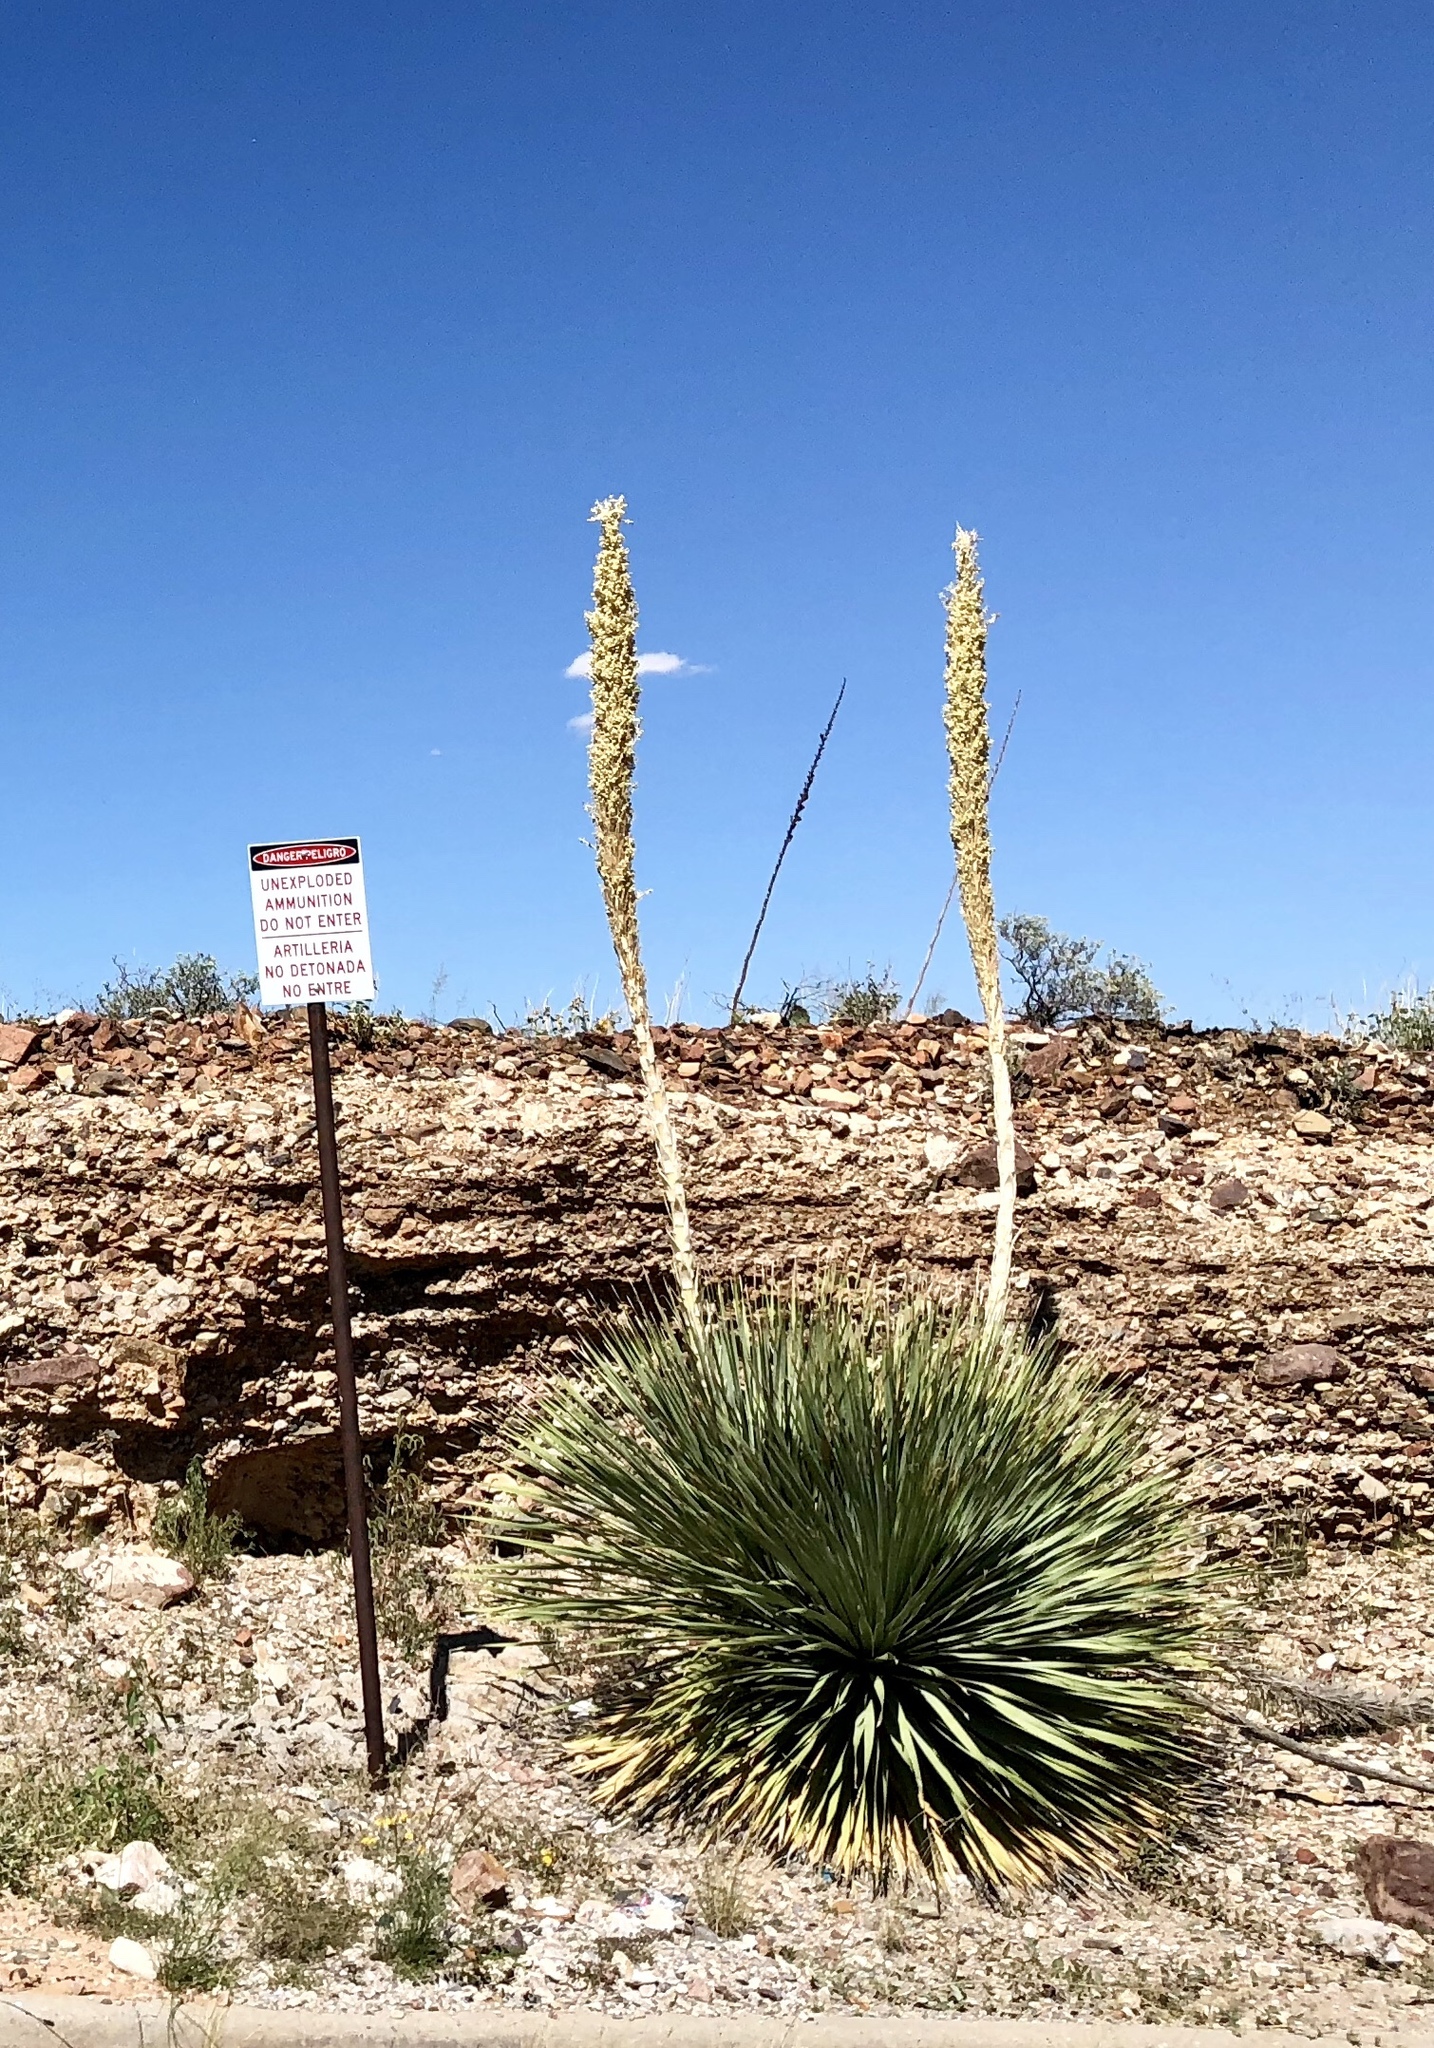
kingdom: Plantae
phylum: Tracheophyta
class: Liliopsida
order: Asparagales
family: Asparagaceae
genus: Dasylirion
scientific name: Dasylirion wheeleri
